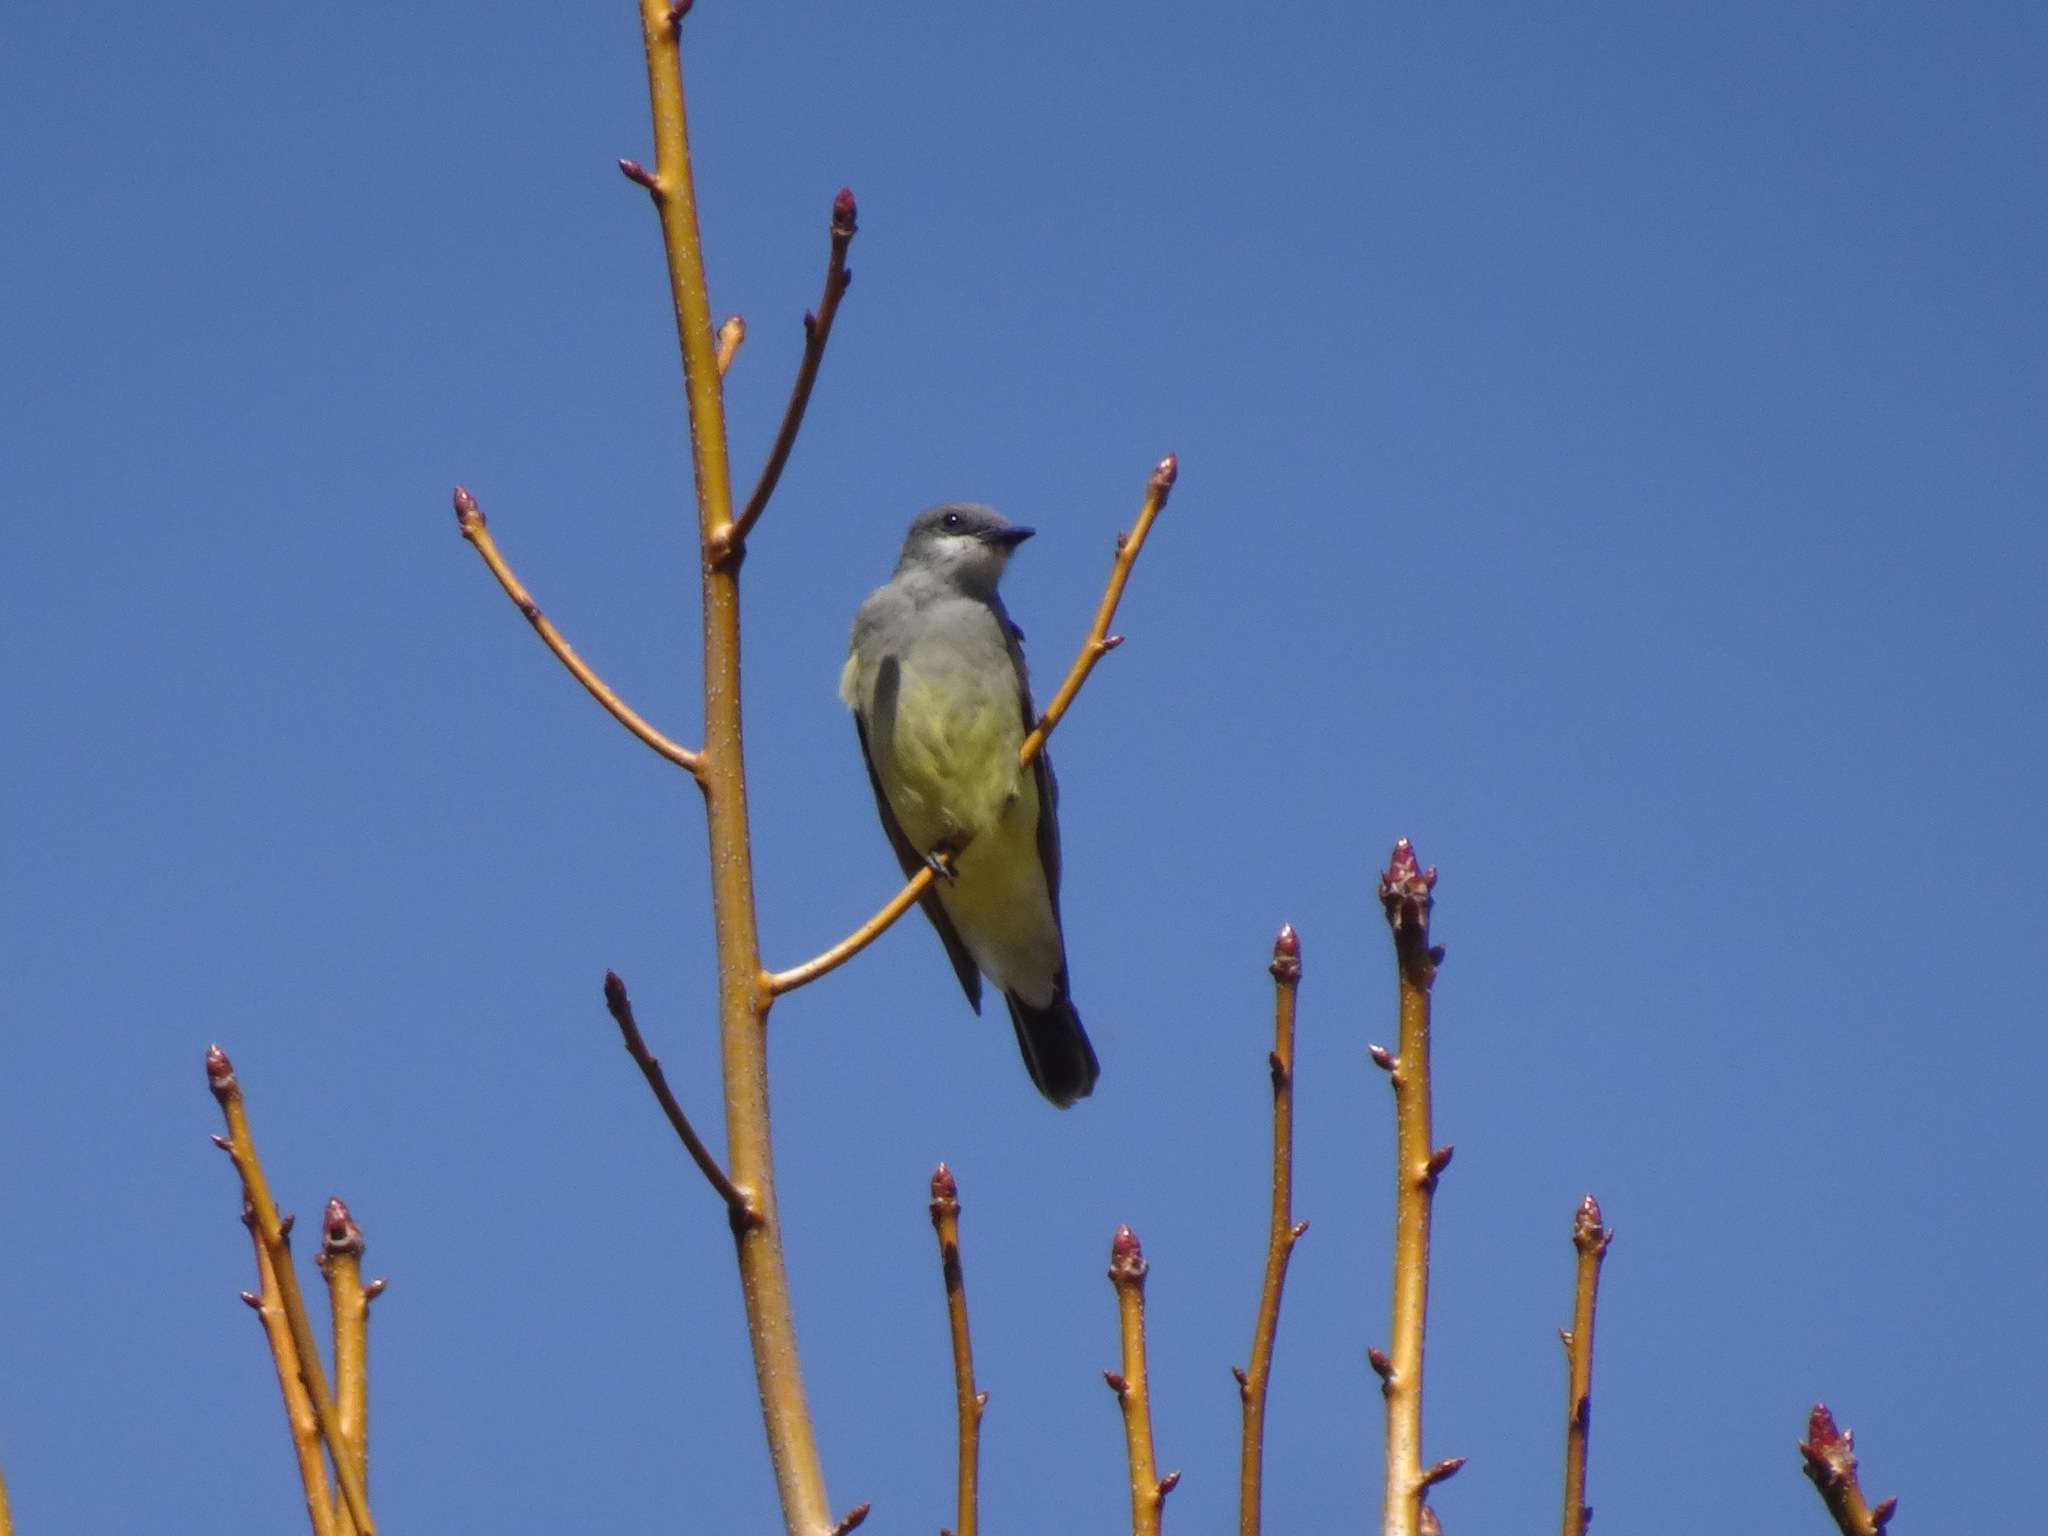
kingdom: Animalia
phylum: Chordata
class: Aves
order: Passeriformes
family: Tyrannidae
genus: Tyrannus
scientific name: Tyrannus vociferans
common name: Cassin's kingbird
